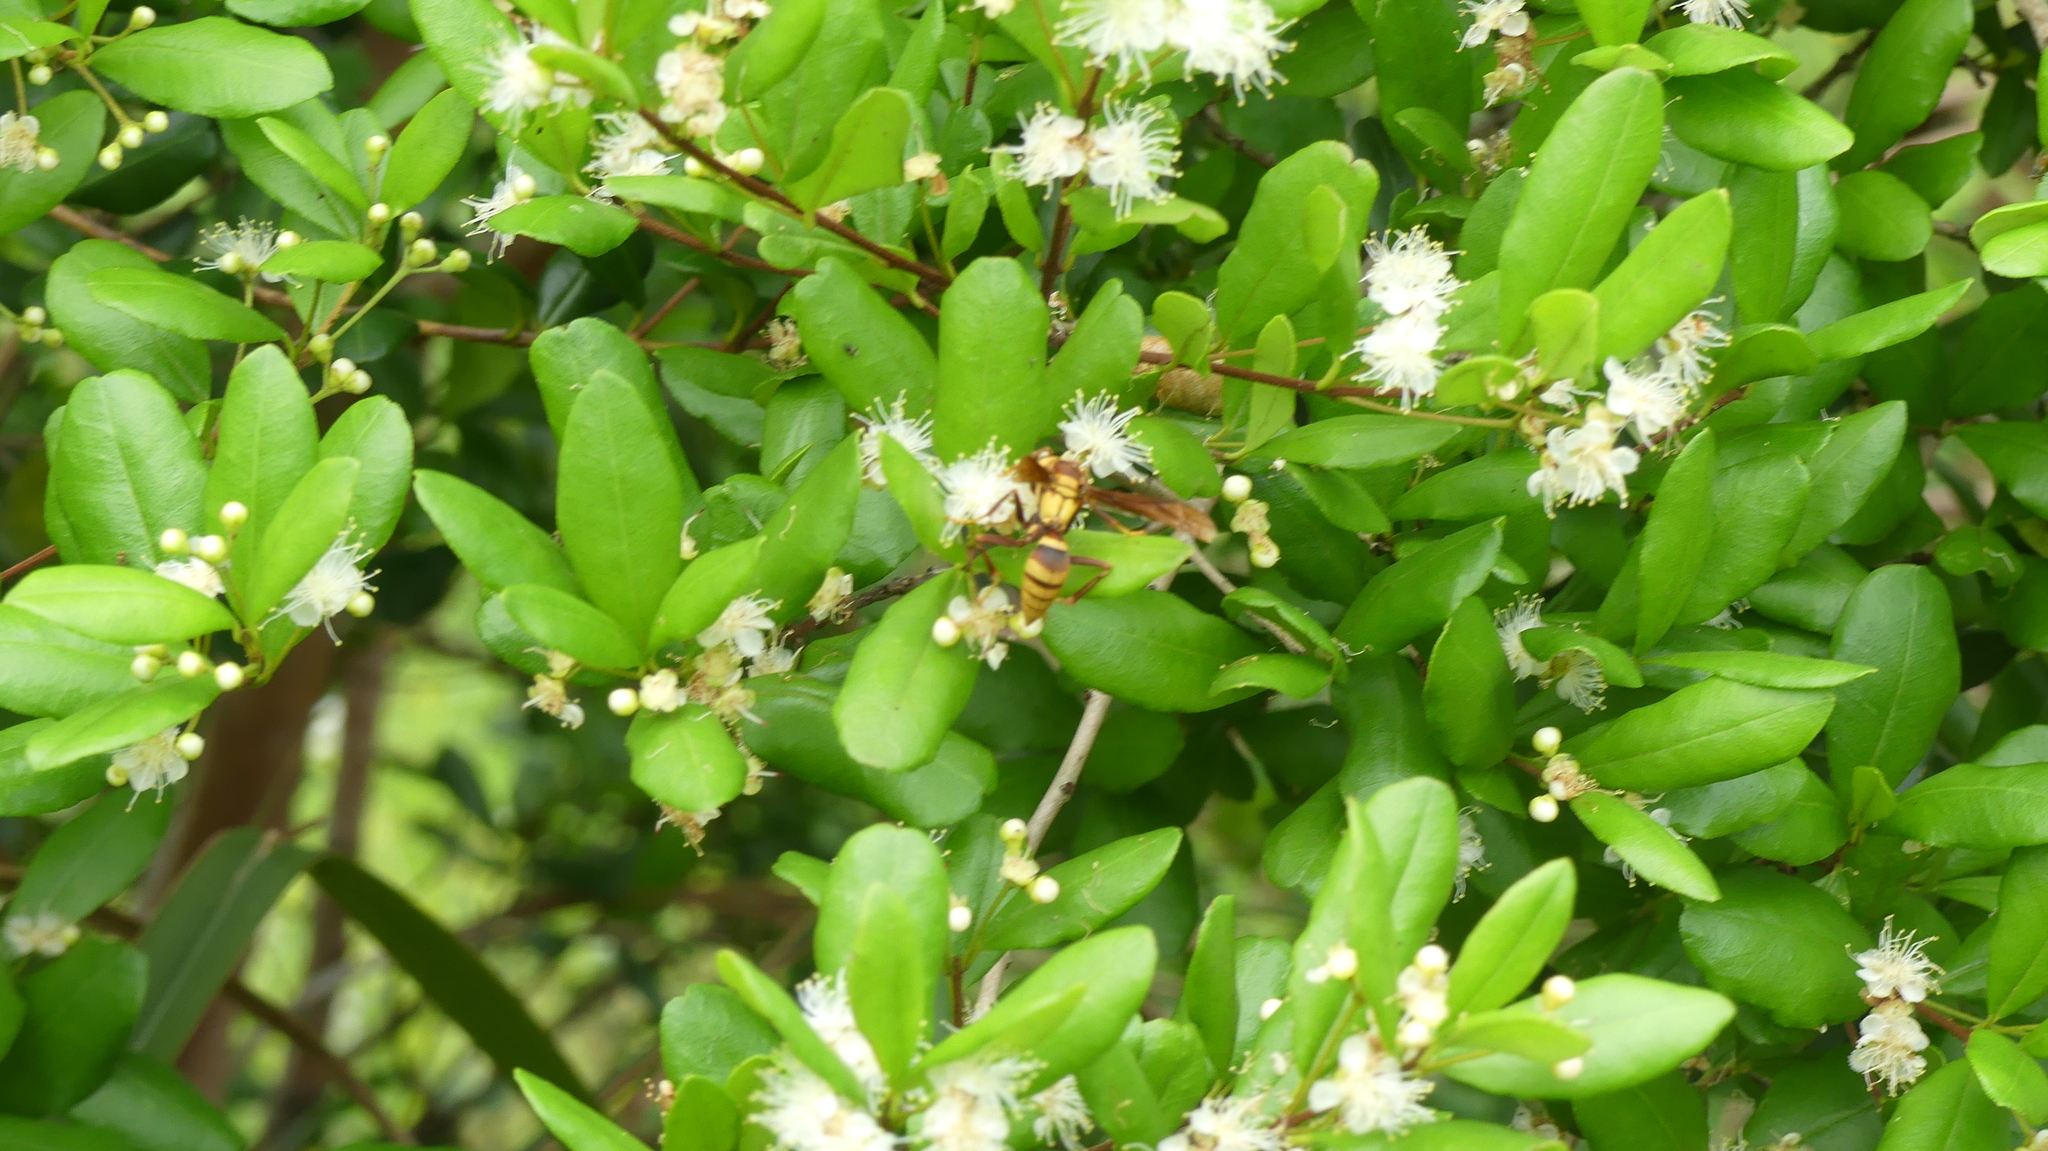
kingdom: Animalia
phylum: Arthropoda
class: Insecta
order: Hymenoptera
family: Eumenidae
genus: Polistes
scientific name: Polistes major
